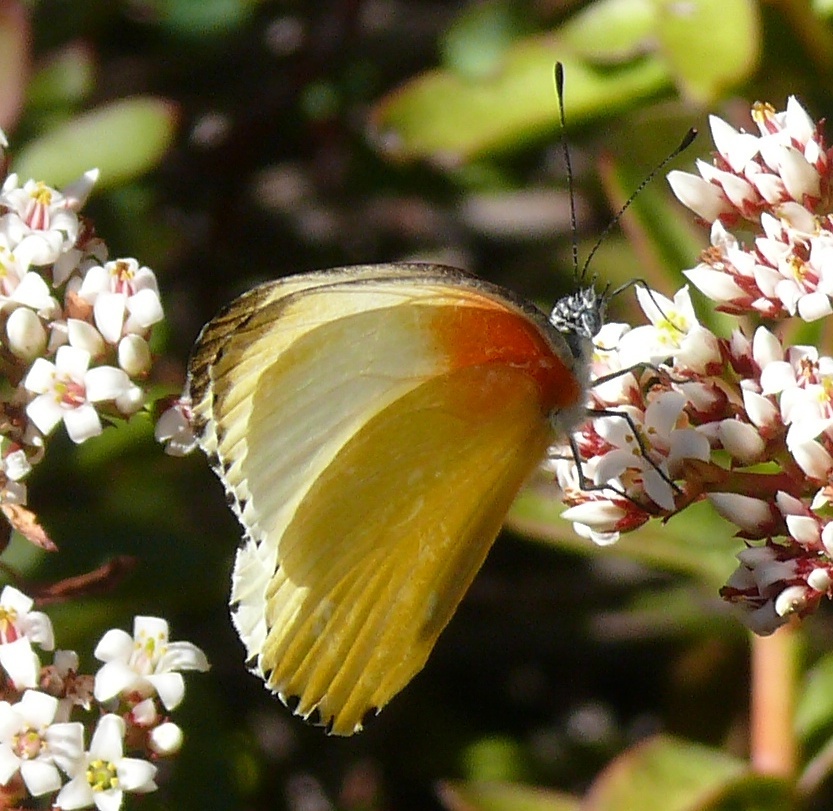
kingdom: Animalia
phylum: Arthropoda
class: Insecta
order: Lepidoptera
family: Pieridae
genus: Mylothris
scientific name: Mylothris agathina
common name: Eastern dotted border
